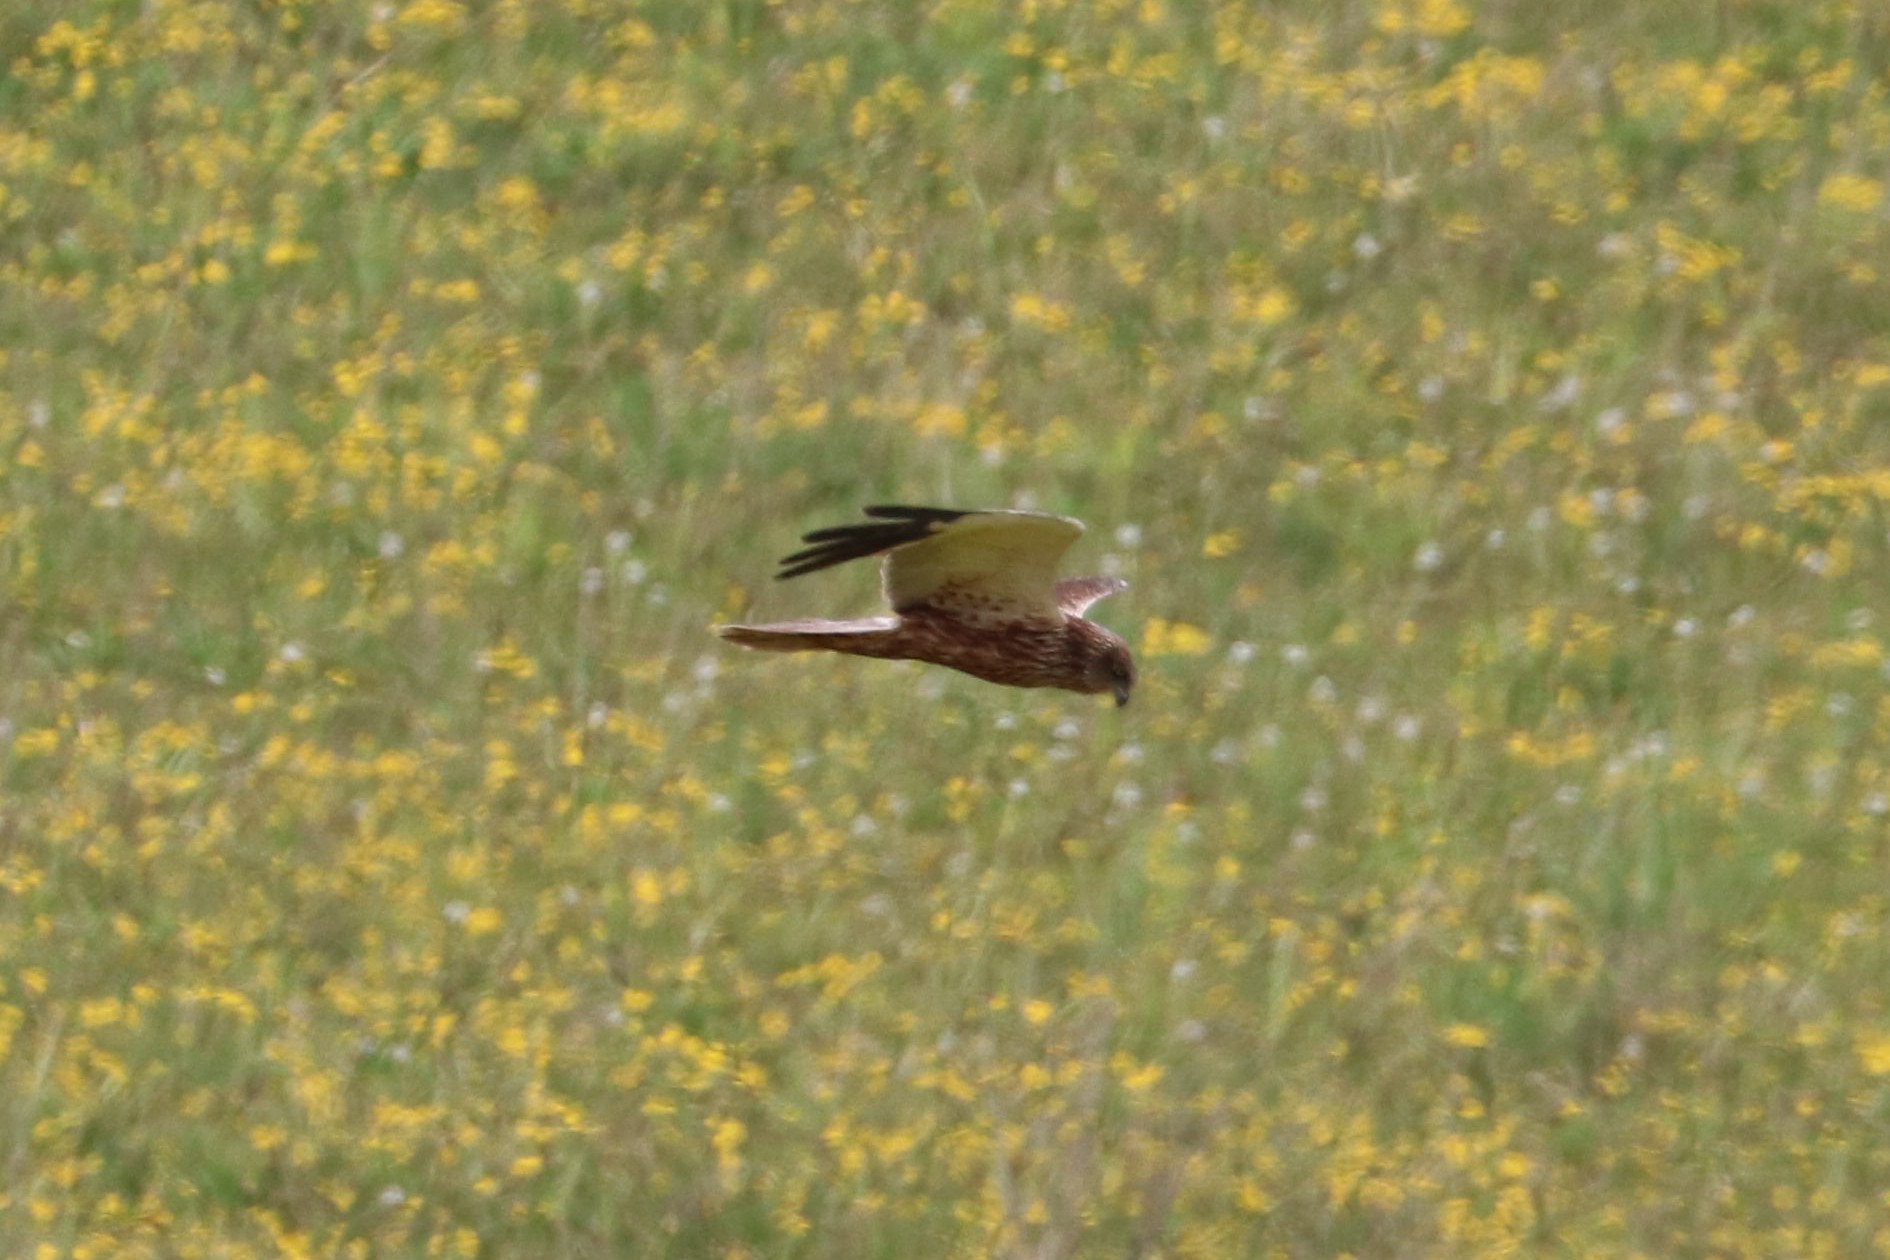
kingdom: Animalia
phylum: Chordata
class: Aves
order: Accipitriformes
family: Accipitridae
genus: Circus
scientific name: Circus aeruginosus
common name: Western marsh harrier
